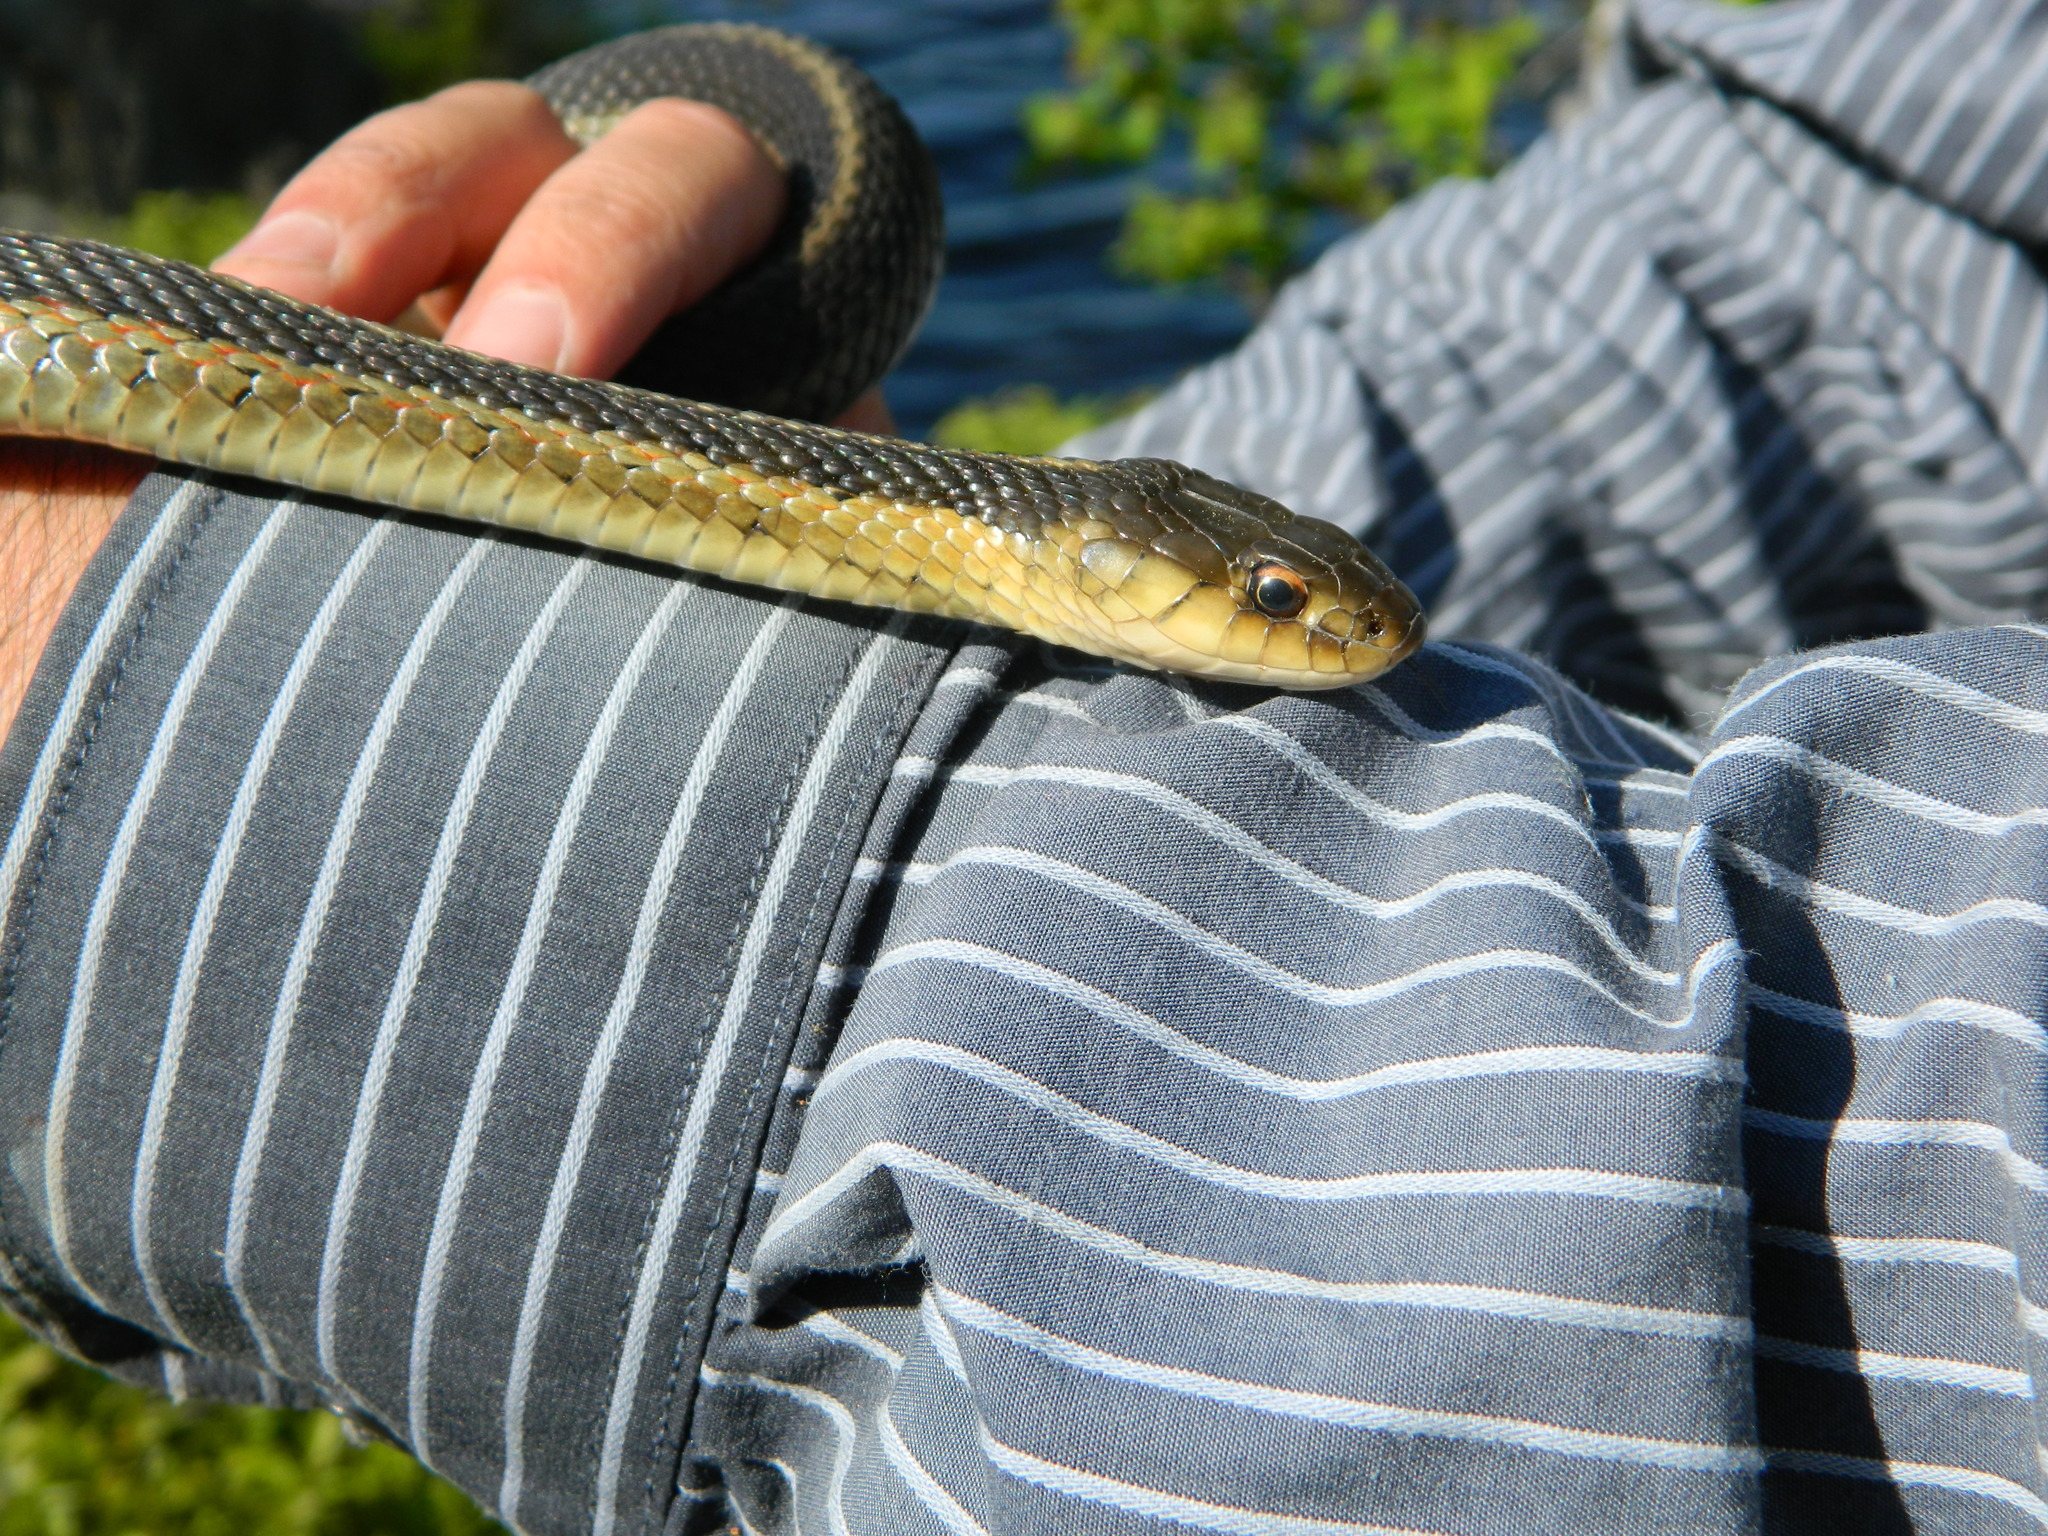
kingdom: Animalia
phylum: Chordata
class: Squamata
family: Colubridae
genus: Thamnophis
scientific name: Thamnophis sirtalis
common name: Common garter snake
